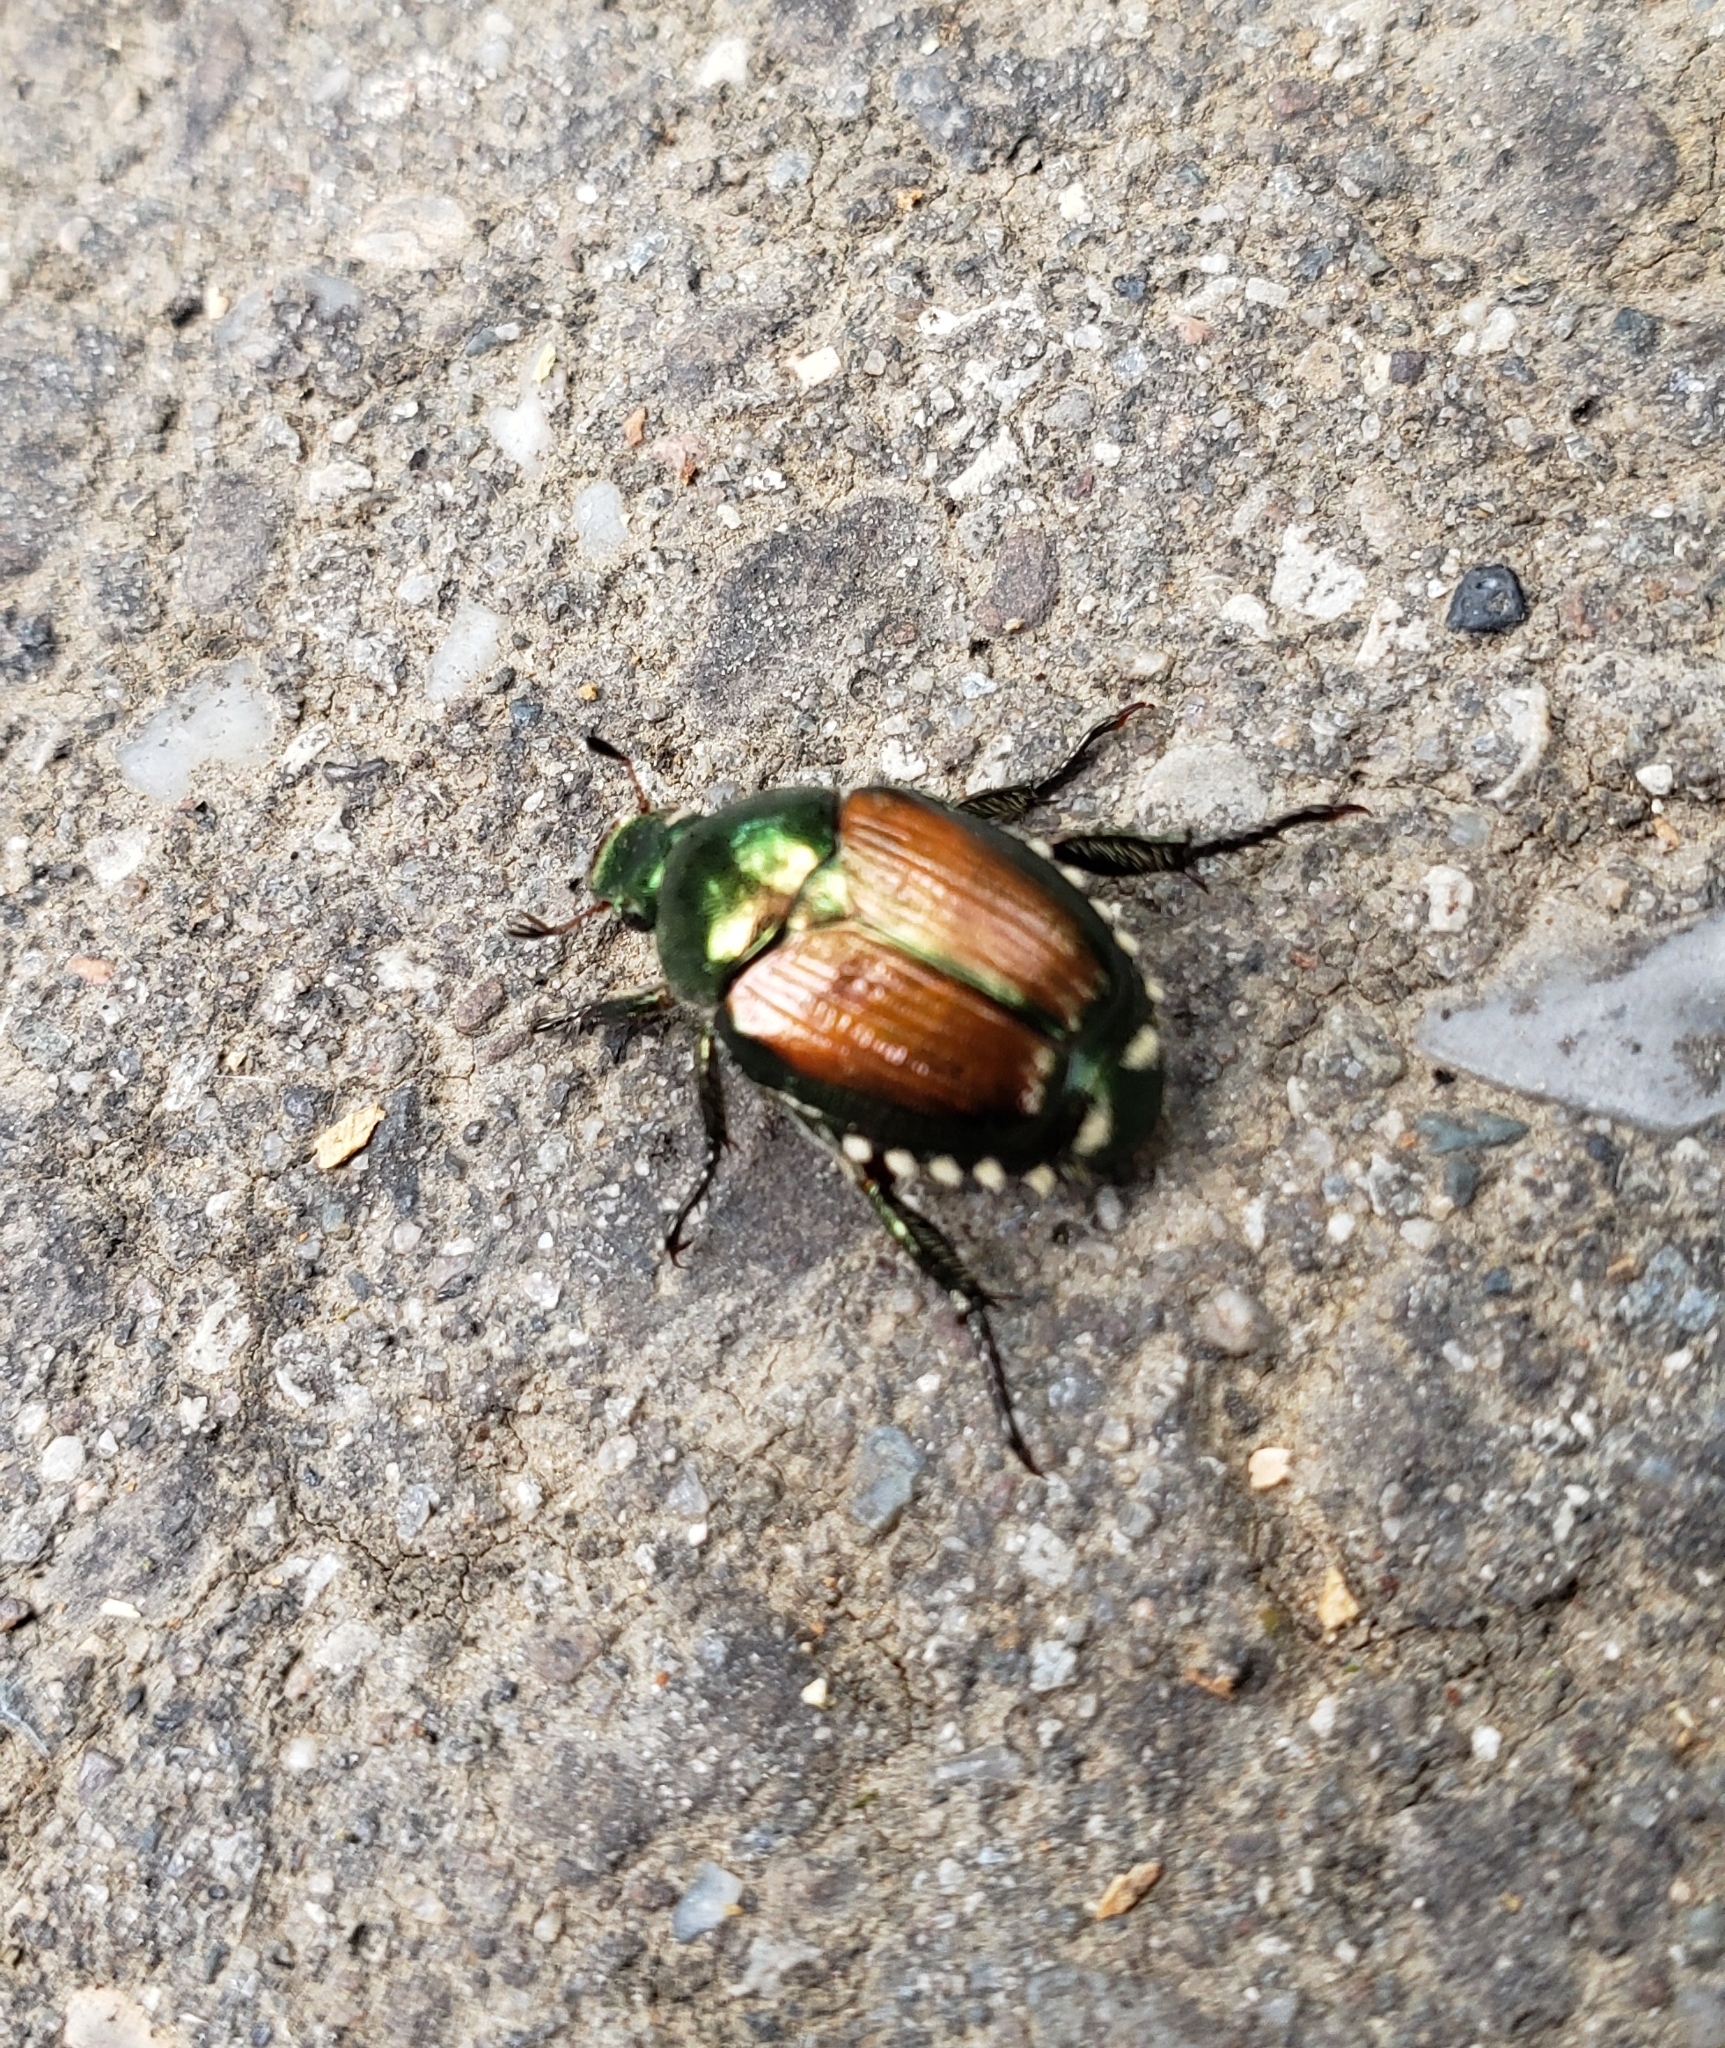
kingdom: Animalia
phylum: Arthropoda
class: Insecta
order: Coleoptera
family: Scarabaeidae
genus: Popillia
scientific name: Popillia japonica
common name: Japanese beetle
